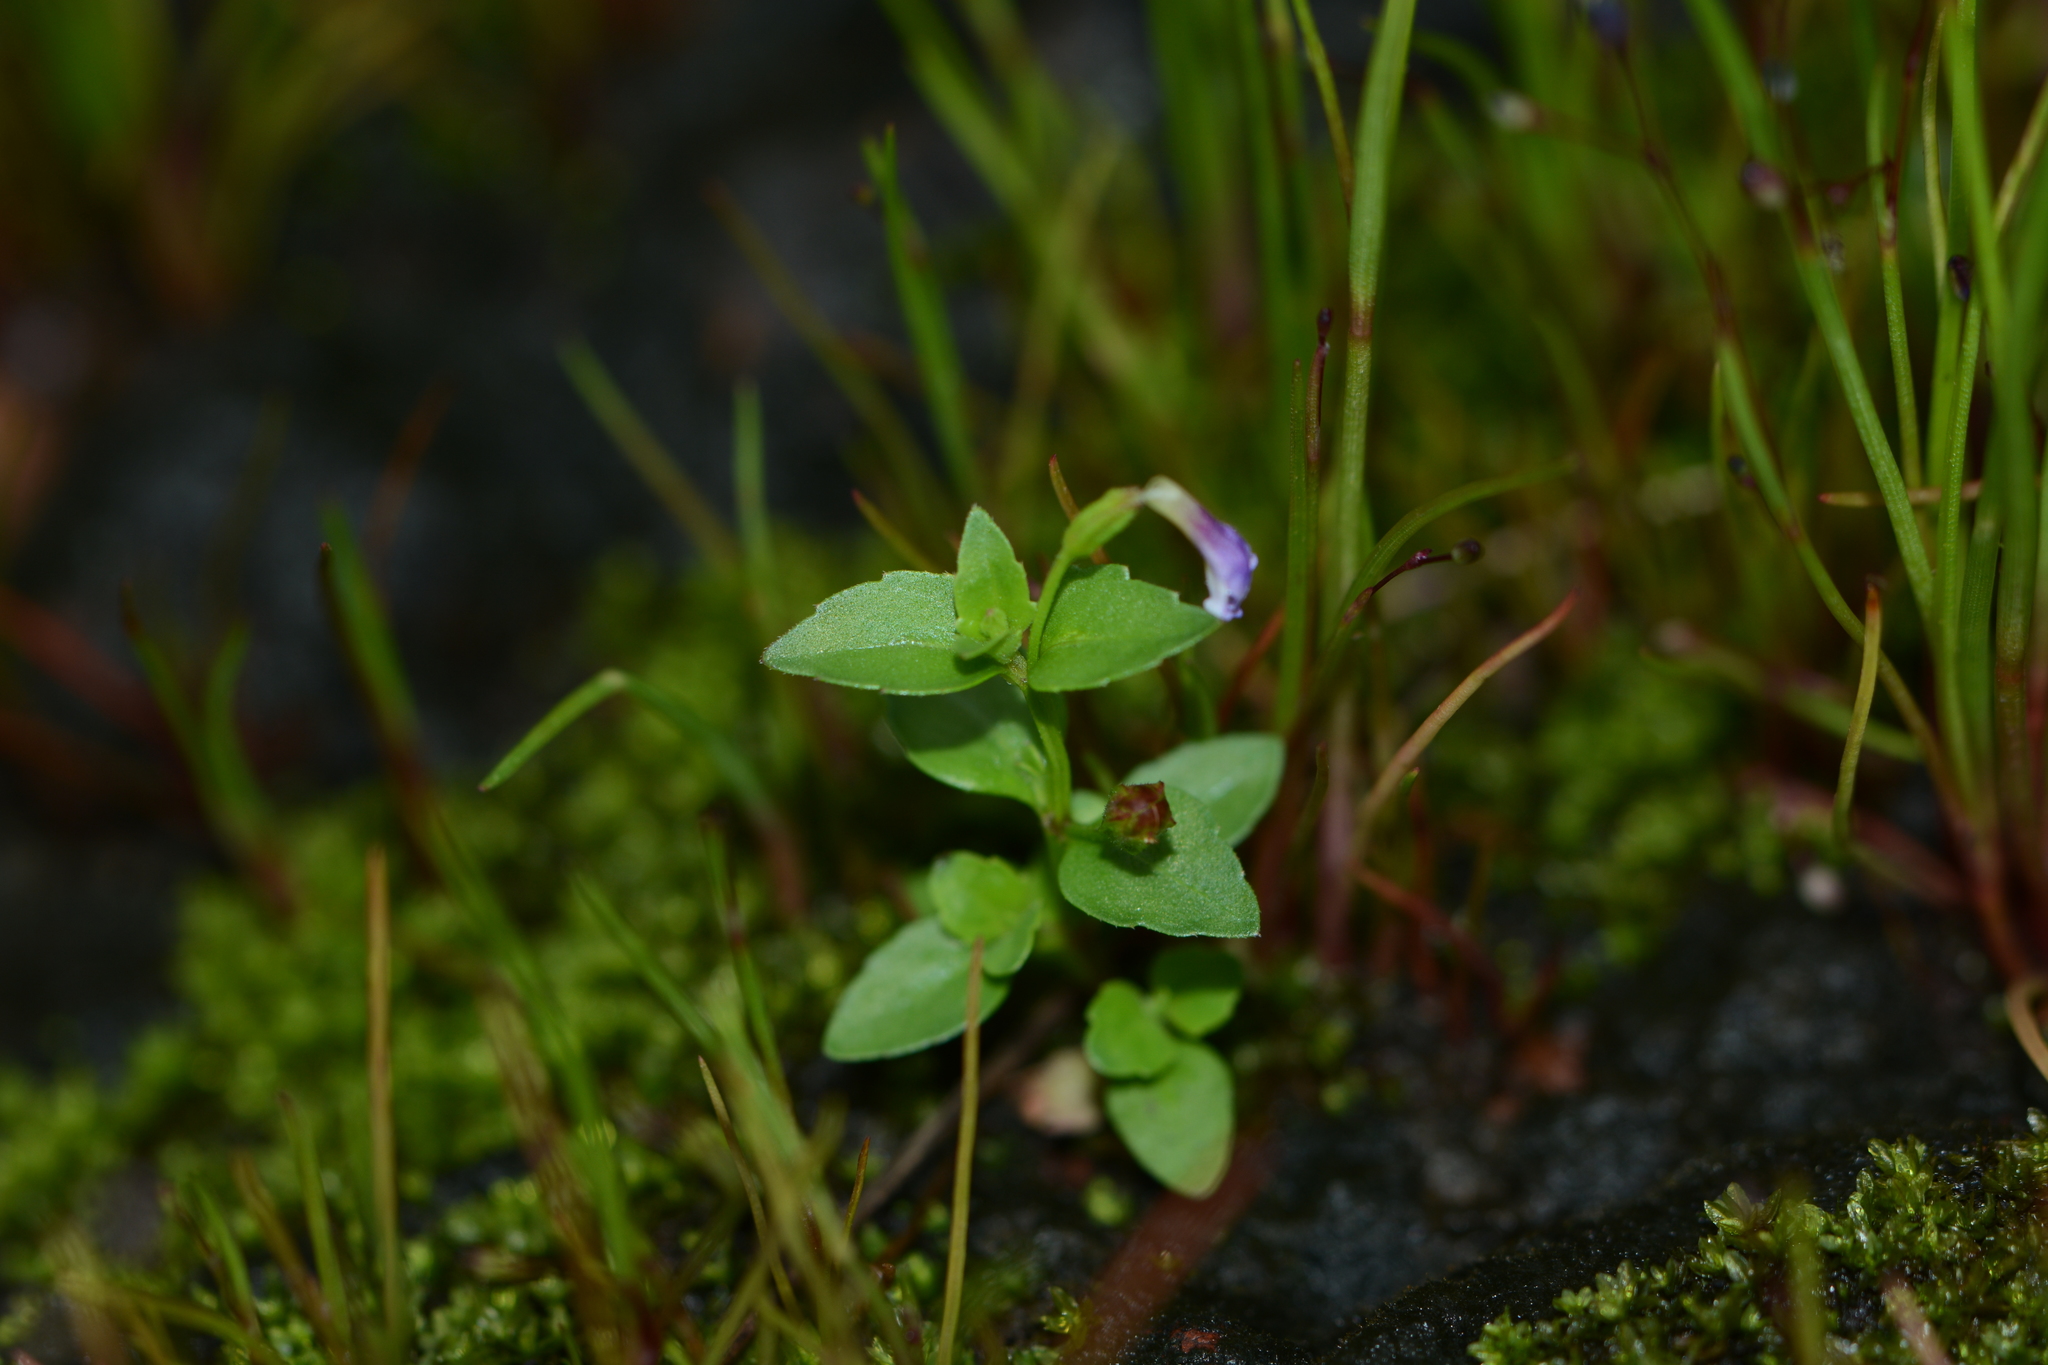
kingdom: Plantae
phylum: Tracheophyta
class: Magnoliopsida
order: Lamiales
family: Linderniaceae
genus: Torenia
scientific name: Torenia crustacea
